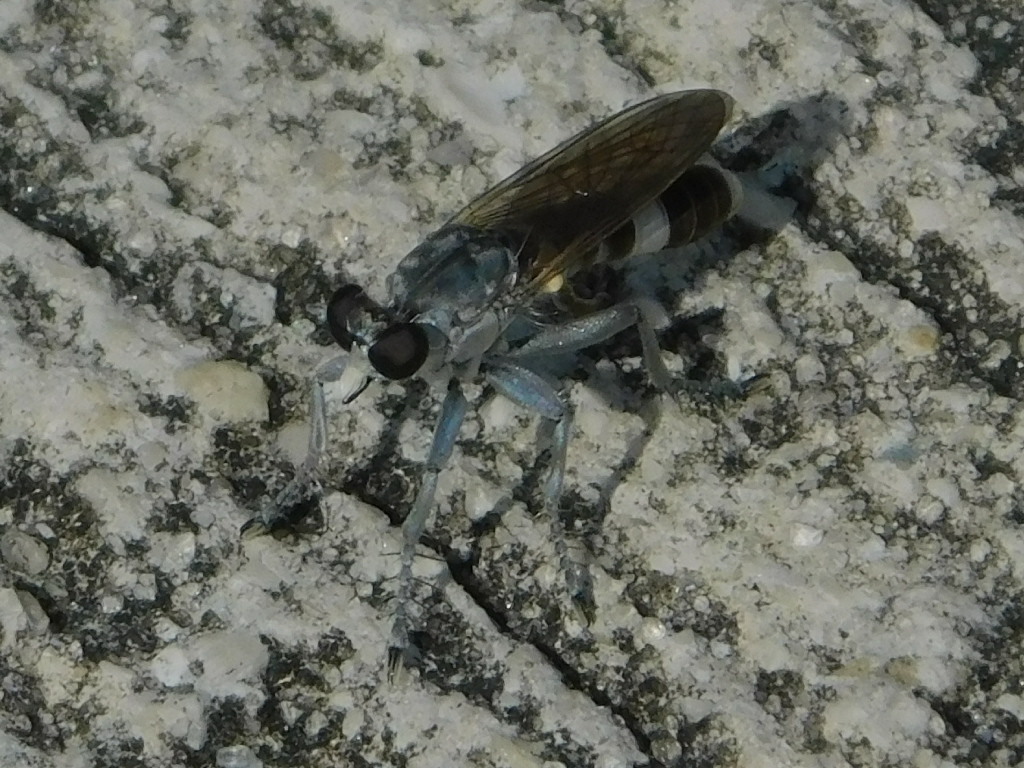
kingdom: Animalia
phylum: Arthropoda
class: Insecta
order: Diptera
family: Asilidae
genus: Stichopogon
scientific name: Stichopogon trifasciatus
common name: Three-banded robber fly
